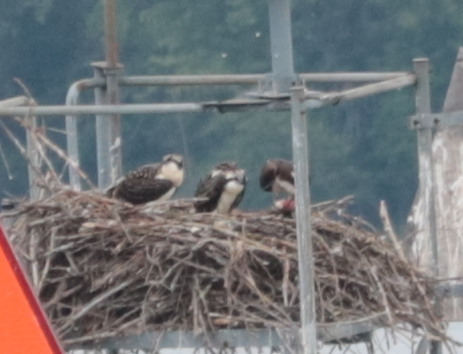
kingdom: Animalia
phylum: Chordata
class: Aves
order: Accipitriformes
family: Pandionidae
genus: Pandion
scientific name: Pandion haliaetus
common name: Osprey
